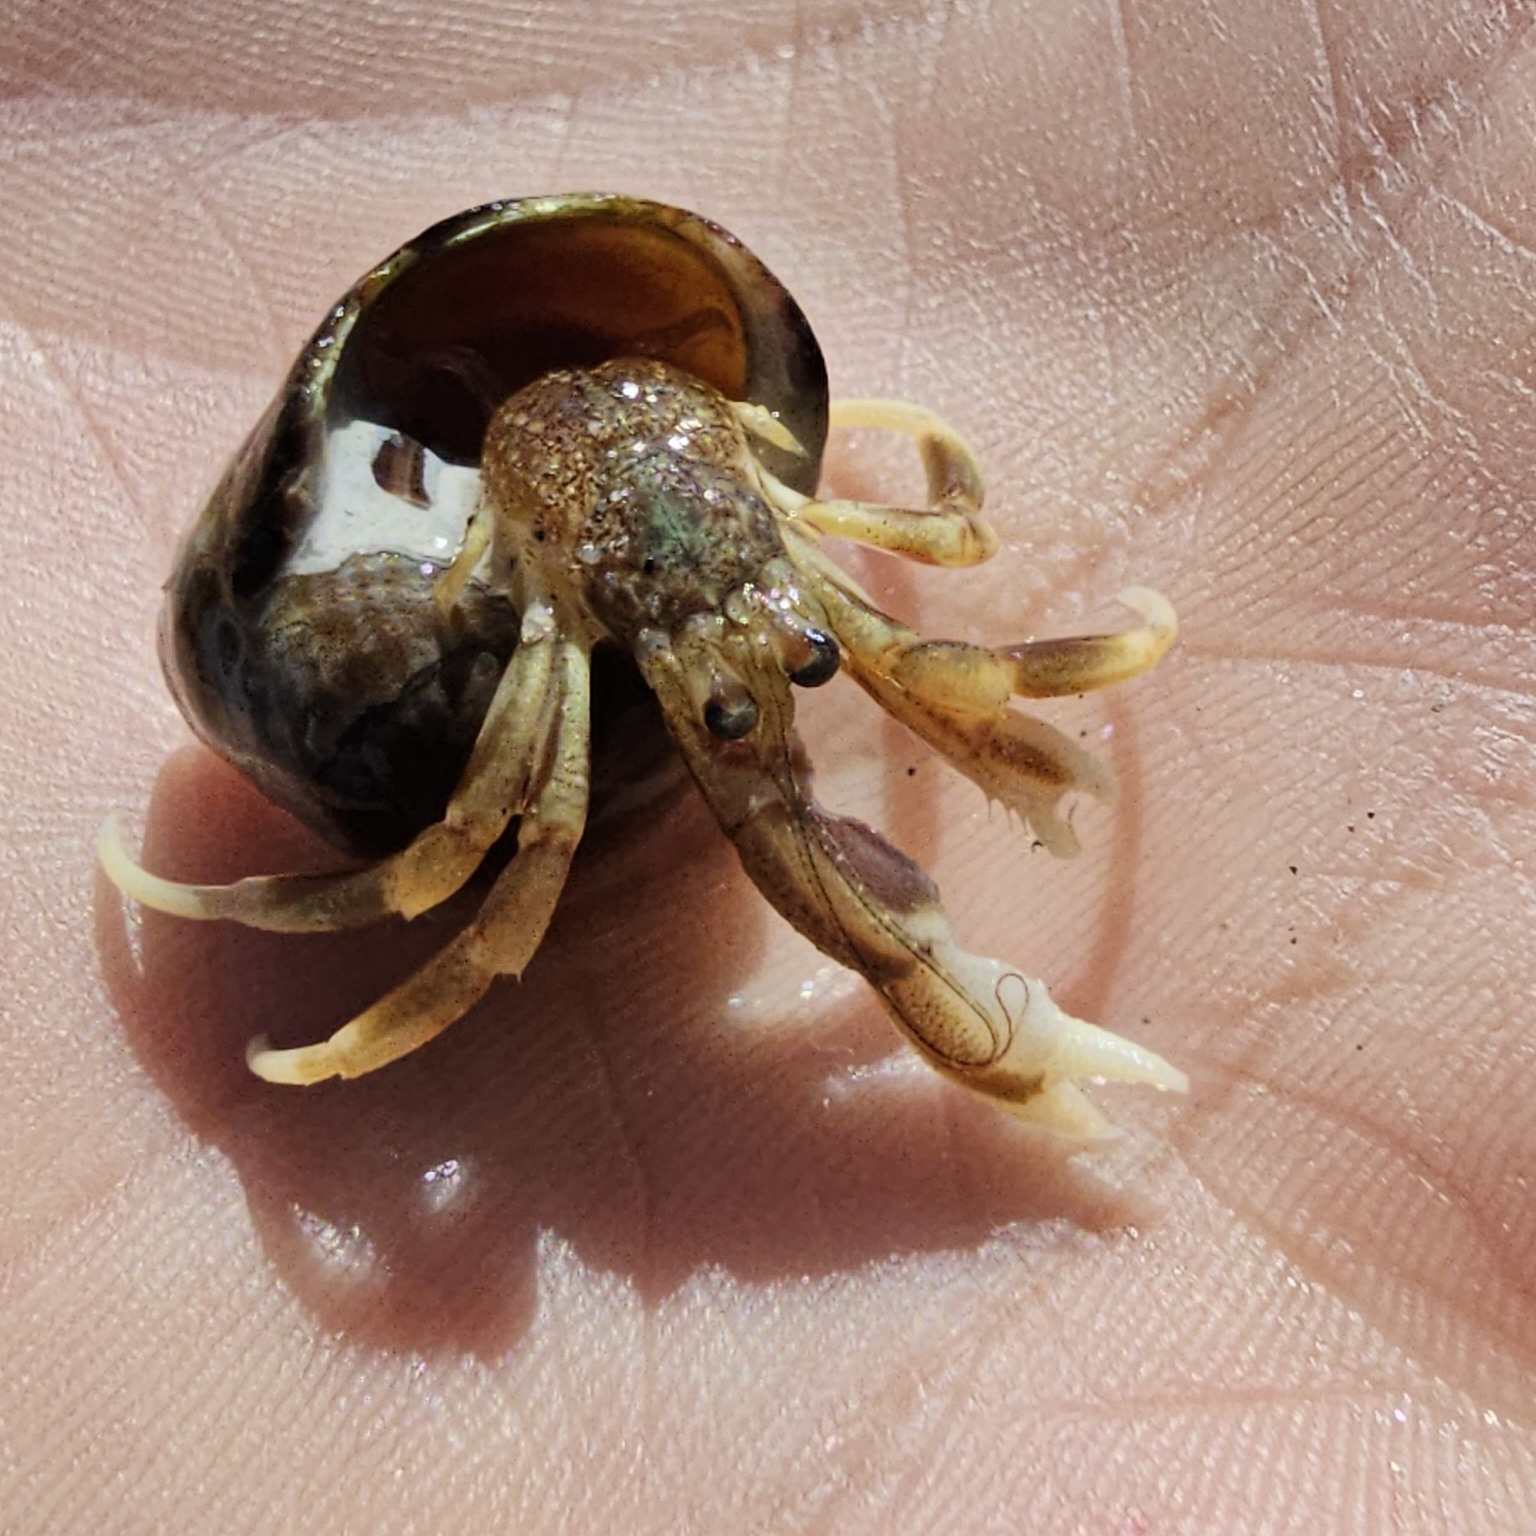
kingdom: Animalia
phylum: Arthropoda
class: Malacostraca
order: Decapoda
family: Paguridae
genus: Pagurus
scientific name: Pagurus longicarpus
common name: Long-armed hermit crab
